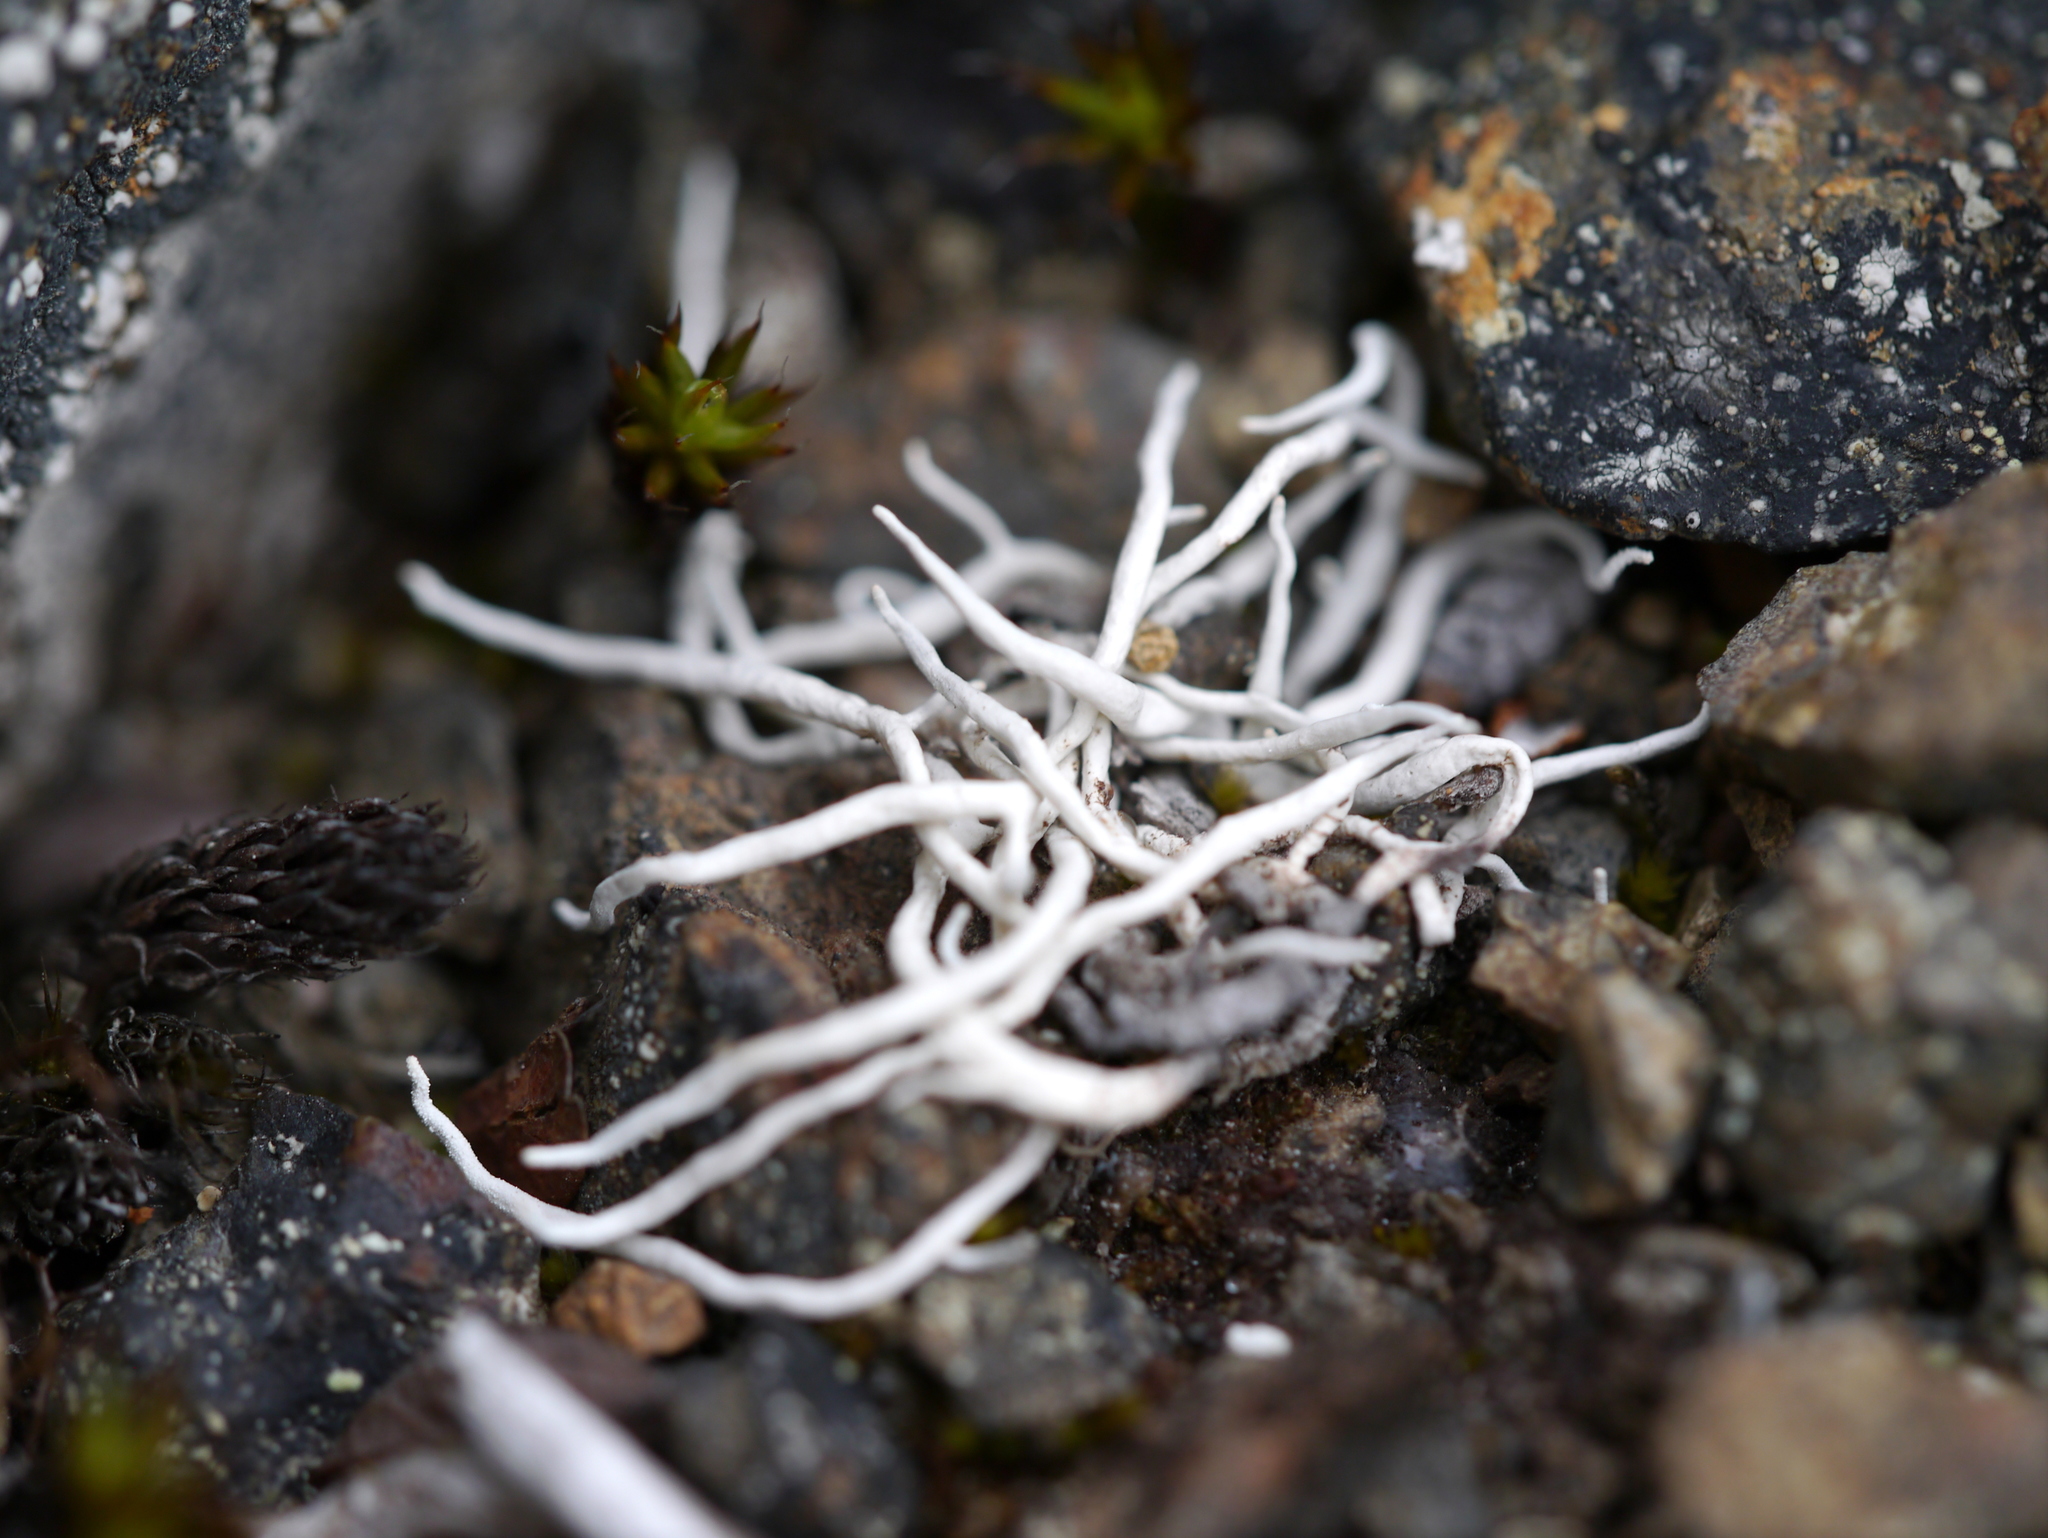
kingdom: Fungi
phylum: Ascomycota
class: Lecanoromycetes
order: Pertusariales
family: Icmadophilaceae
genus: Thamnolia
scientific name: Thamnolia vermicularis
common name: Whiteworm lichen
